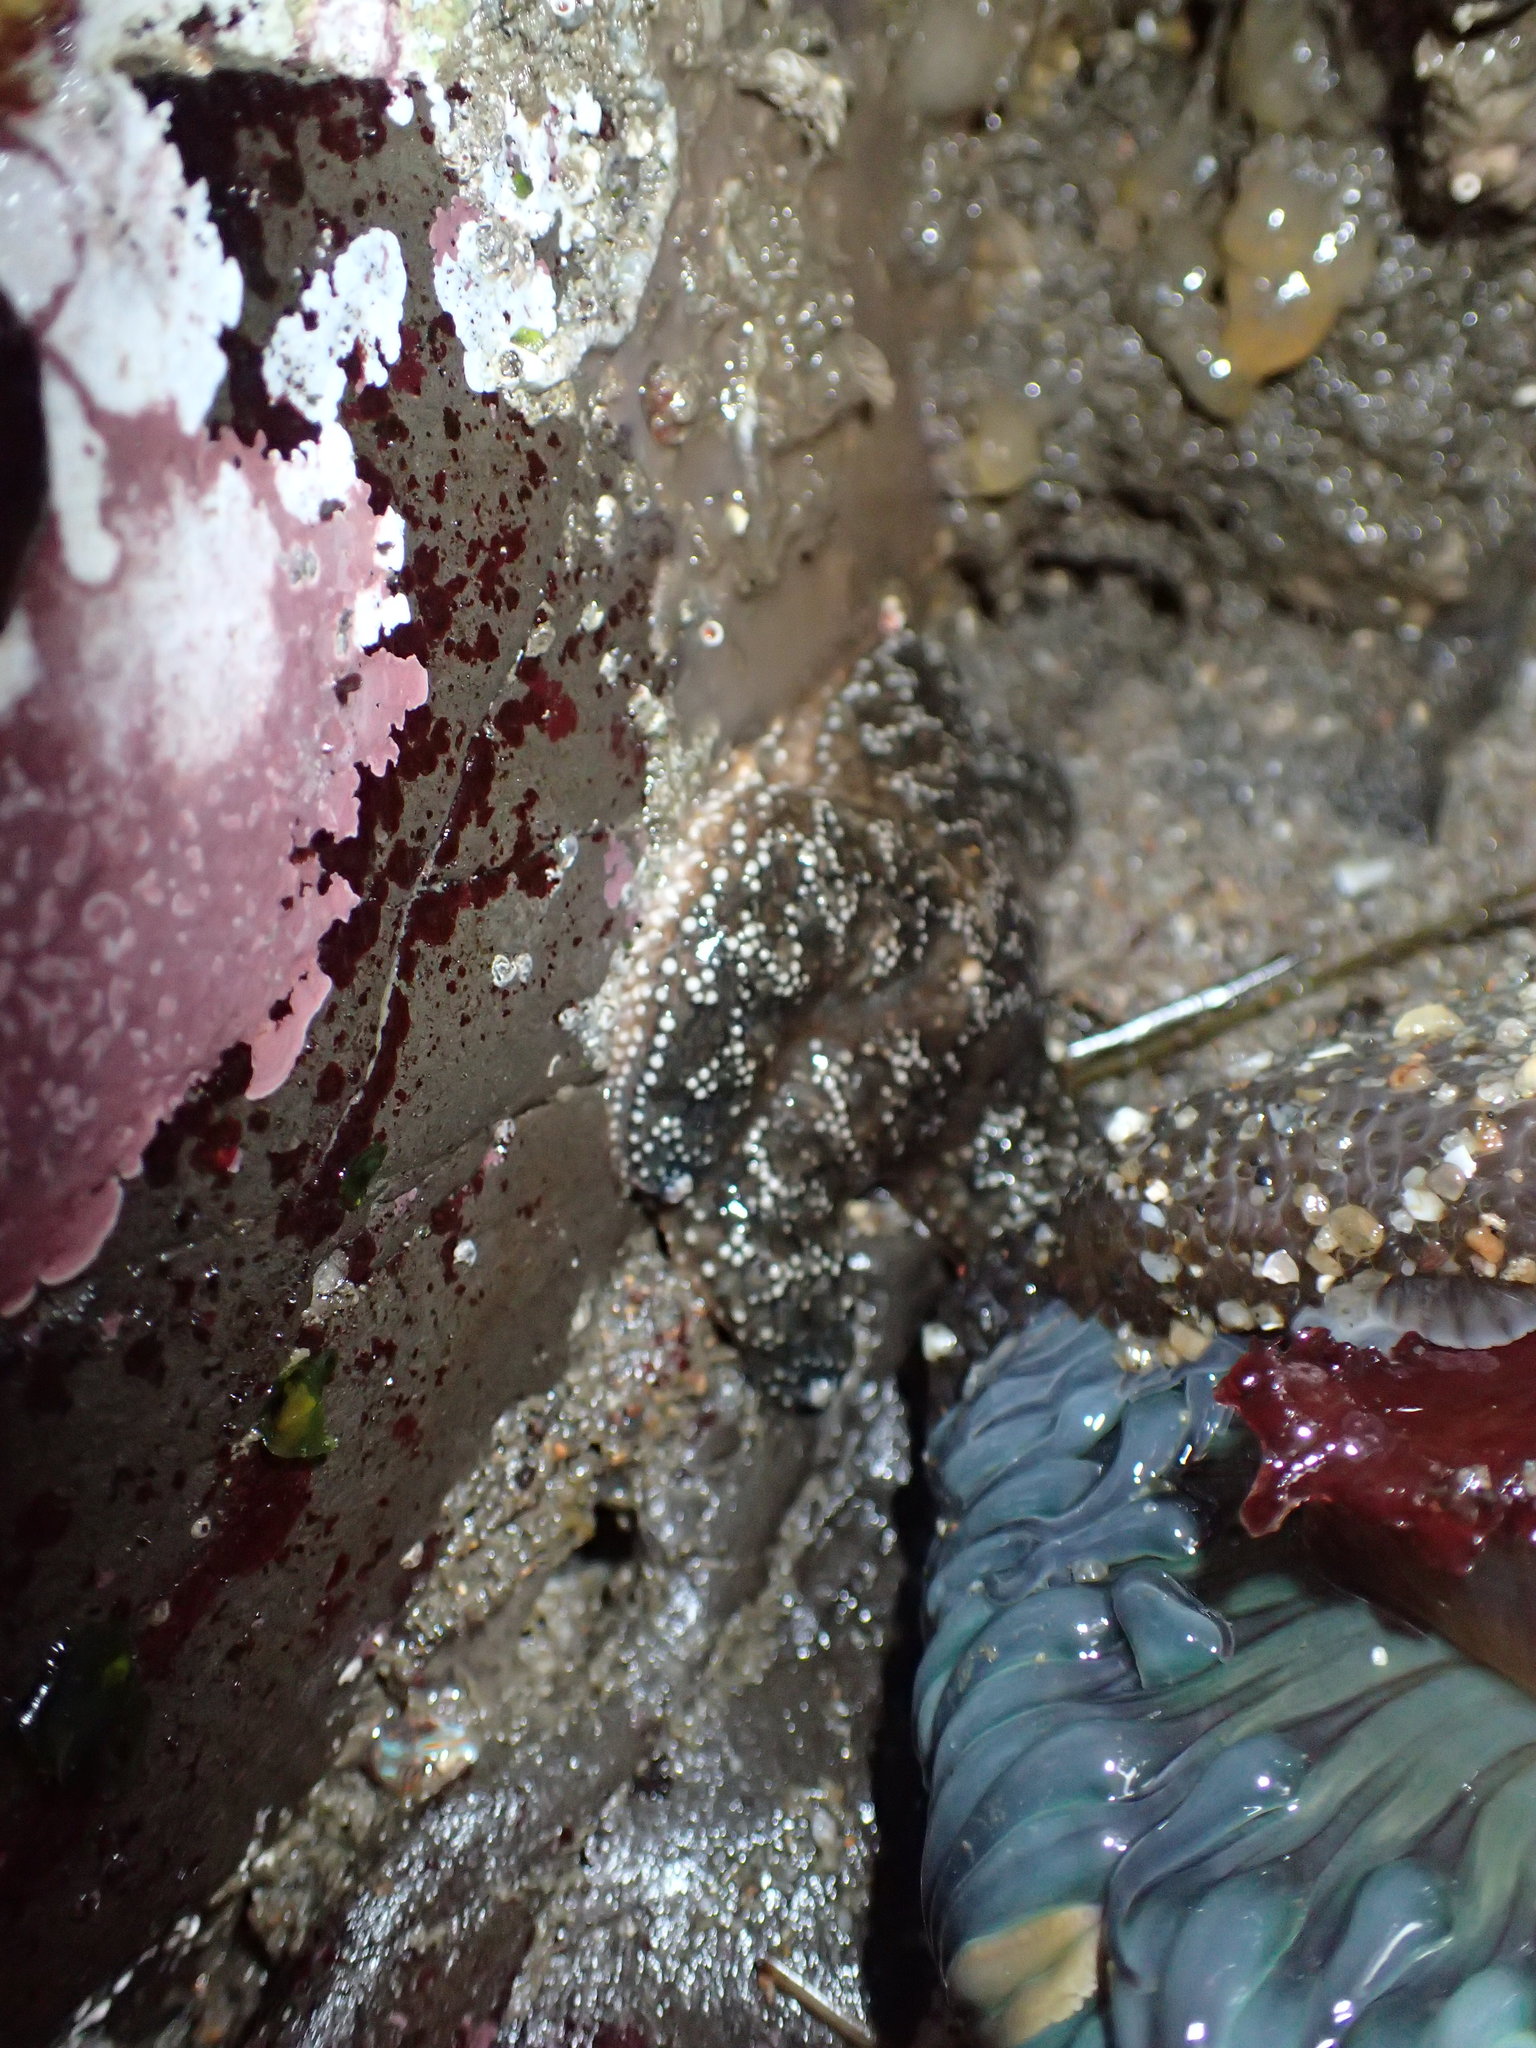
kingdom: Animalia
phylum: Echinodermata
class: Asteroidea
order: Forcipulatida
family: Asteriidae
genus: Pisaster
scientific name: Pisaster ochraceus
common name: Ochre stars
